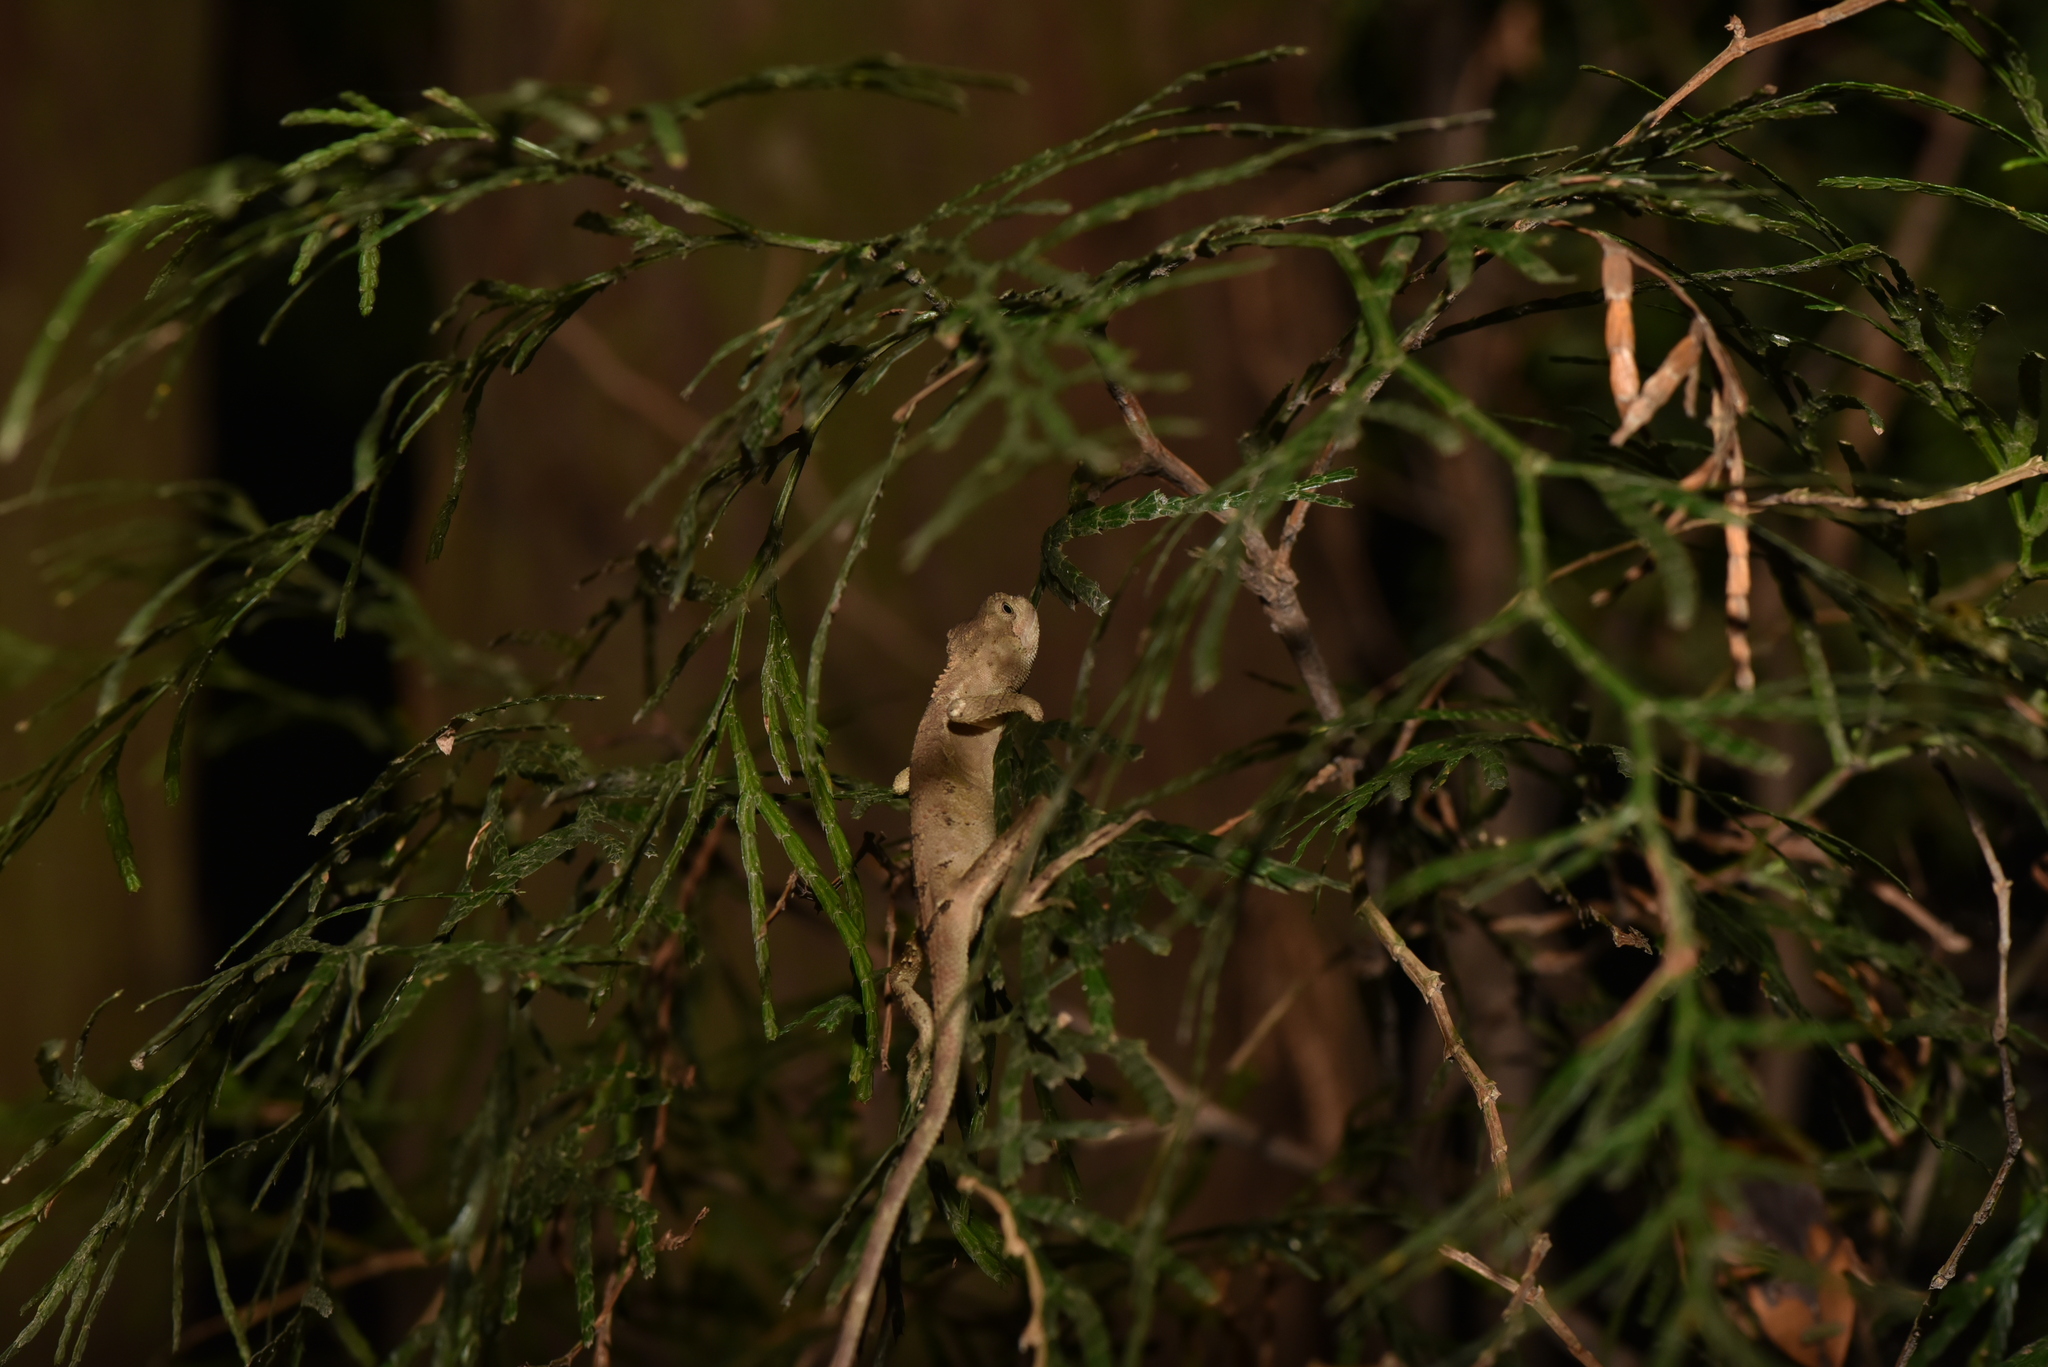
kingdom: Animalia
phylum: Chordata
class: Squamata
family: Agamidae
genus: Diploderma
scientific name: Diploderma swinhonis
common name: Taiwan japalure
